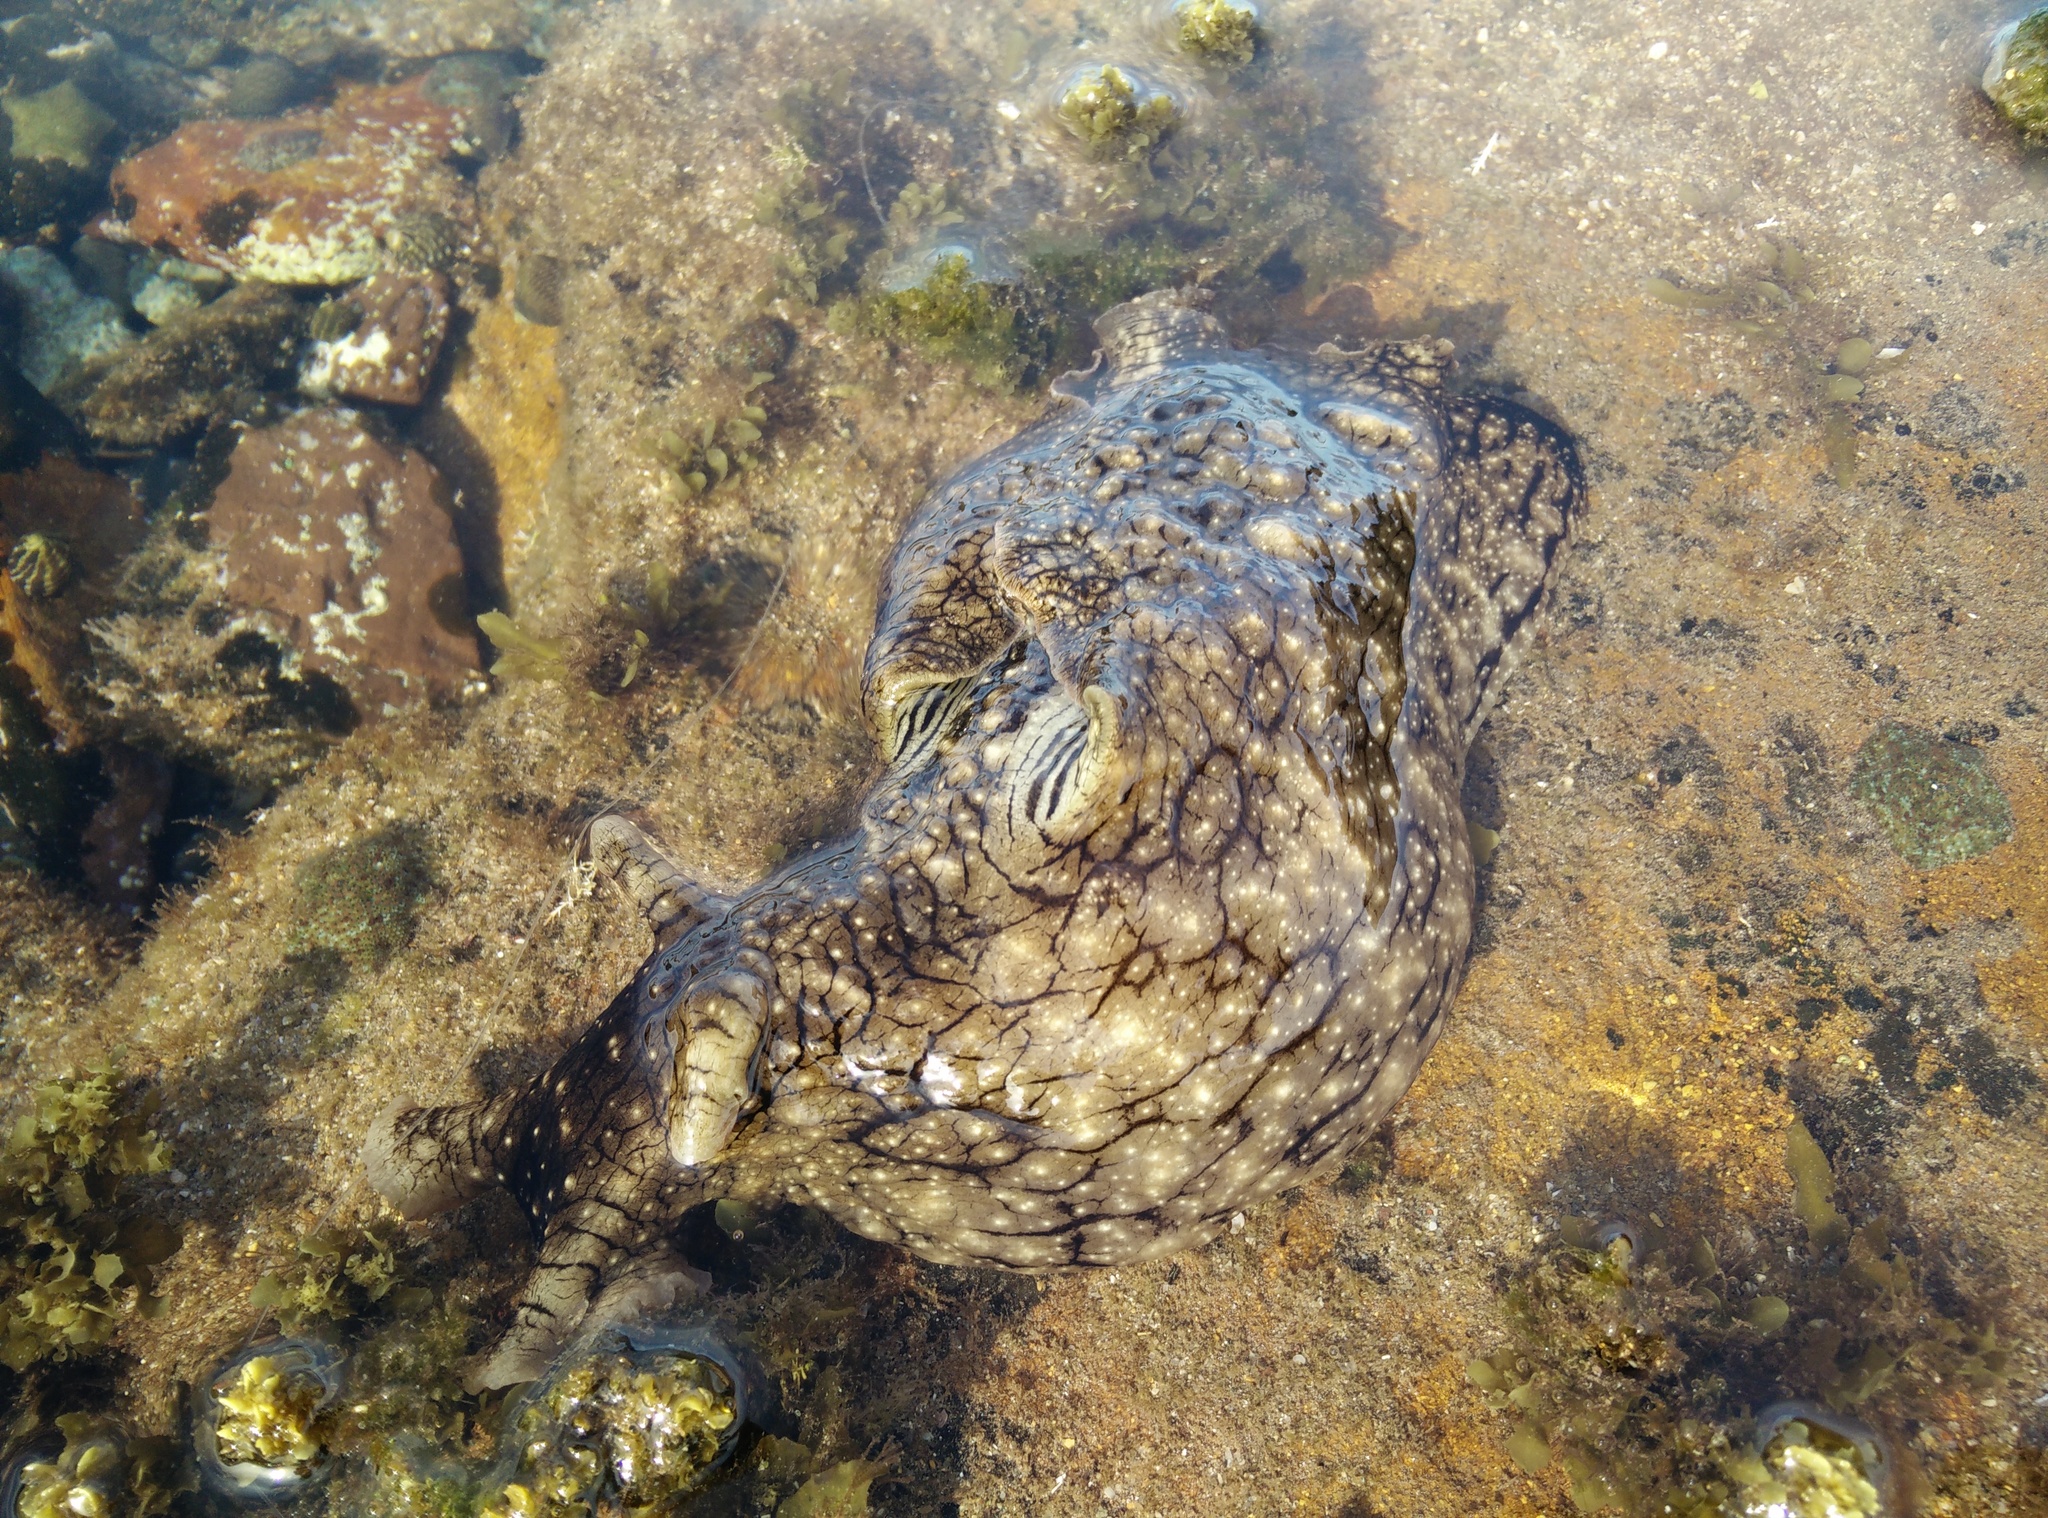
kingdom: Animalia
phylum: Mollusca
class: Gastropoda
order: Aplysiida
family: Aplysiidae
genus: Aplysia
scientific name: Aplysia argus
